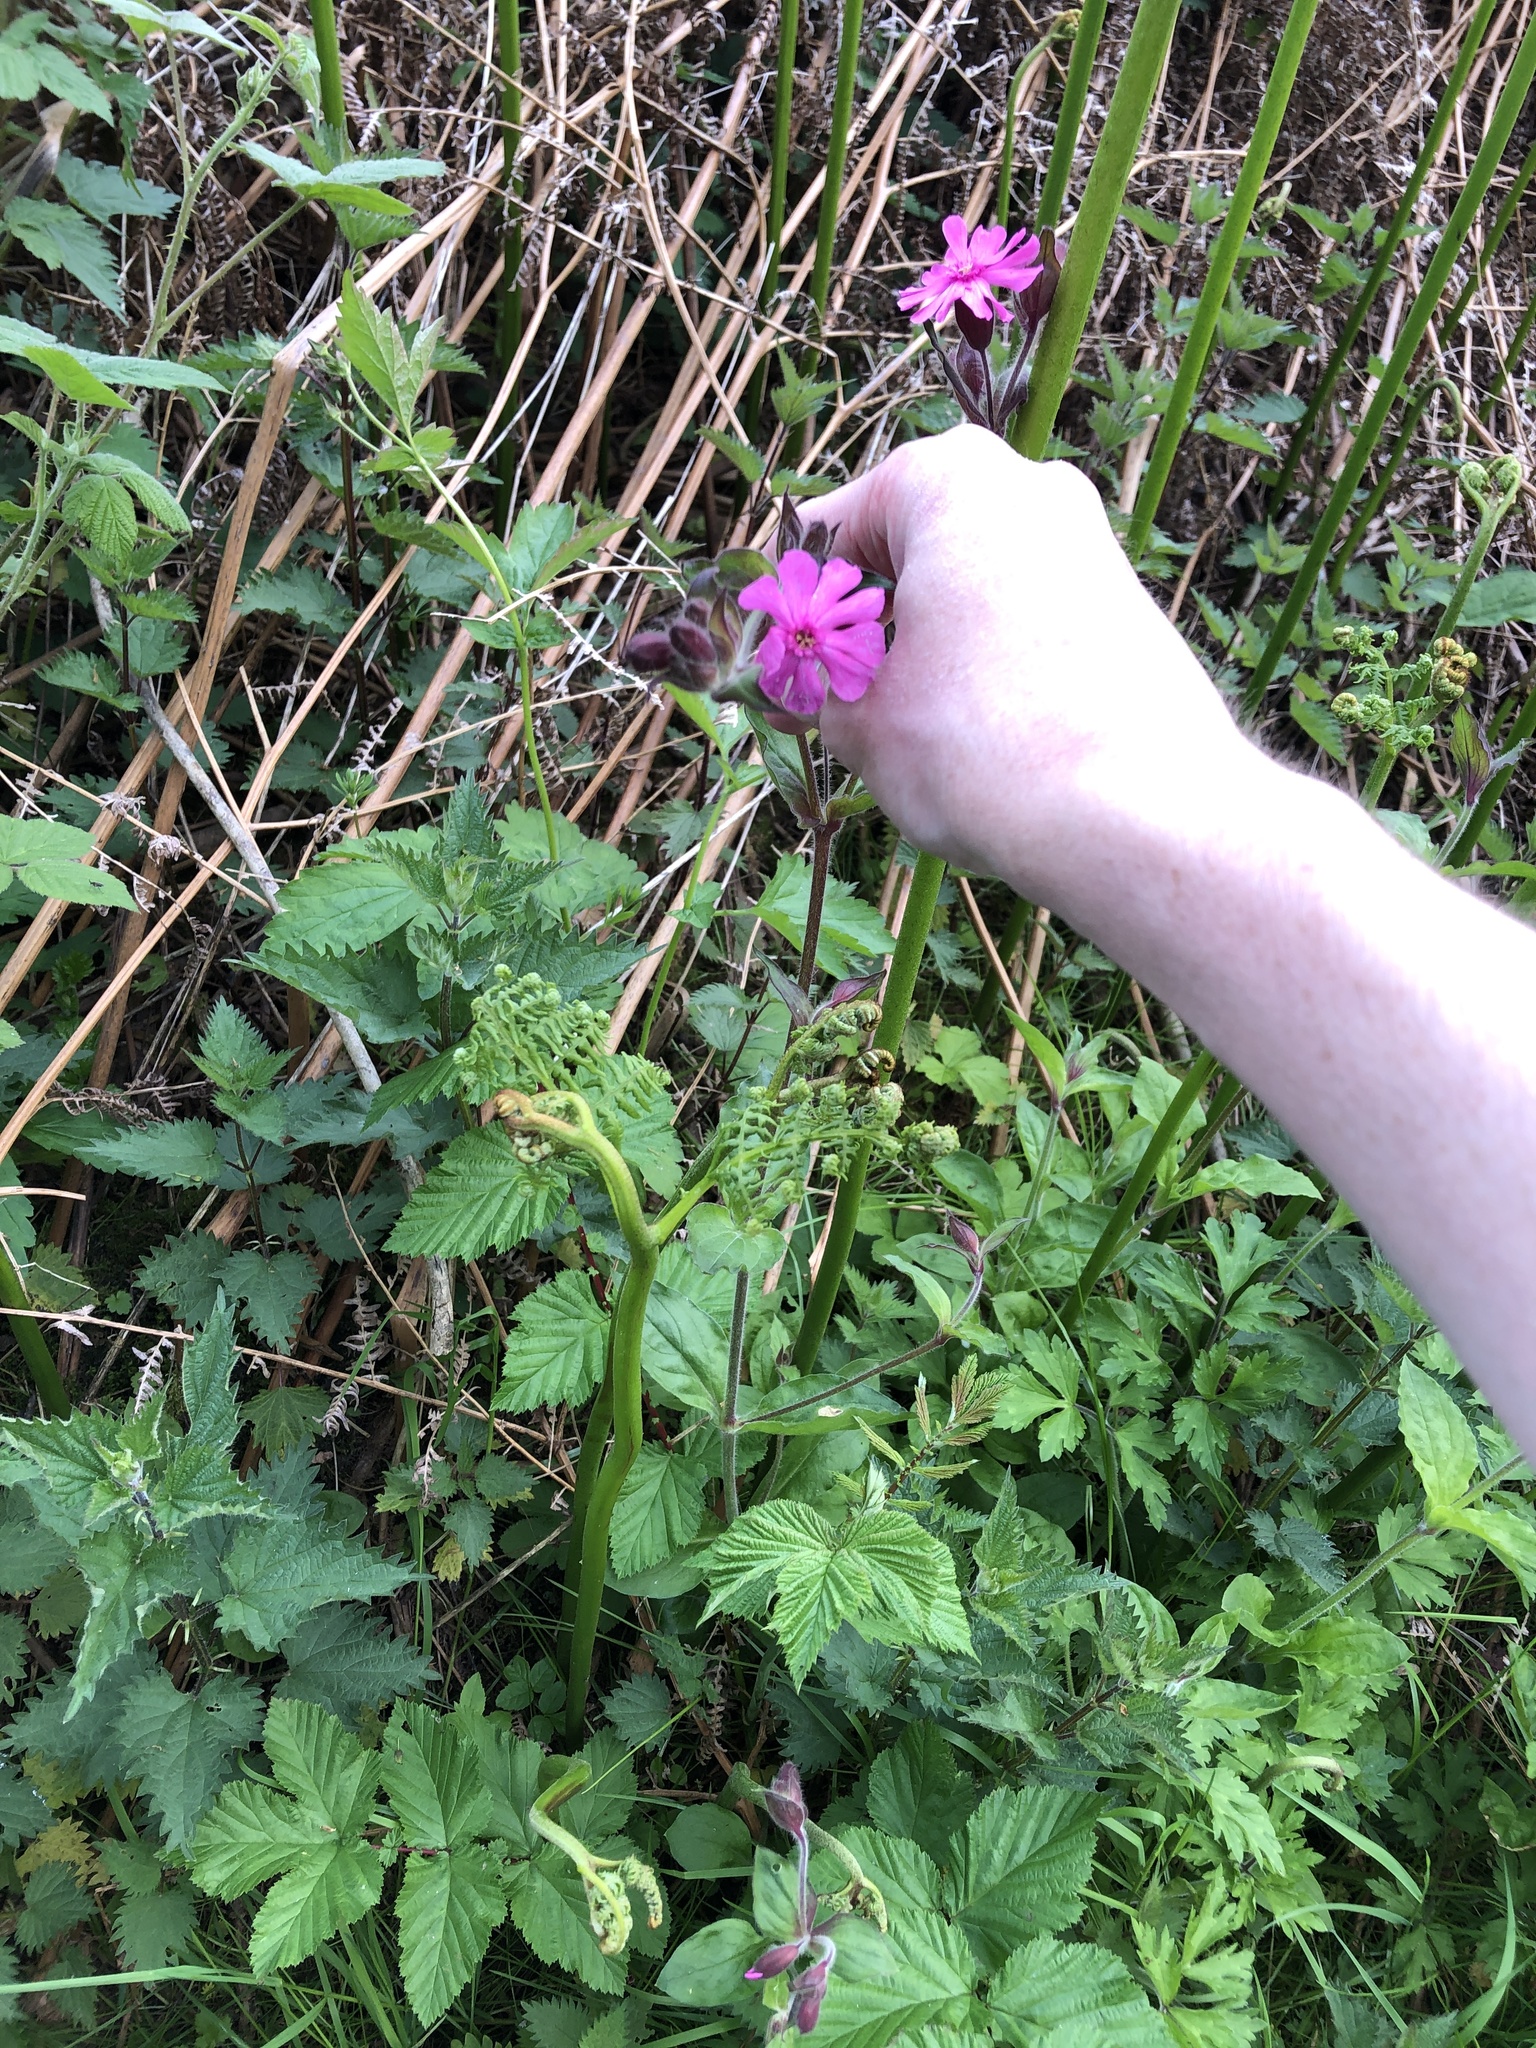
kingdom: Plantae
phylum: Tracheophyta
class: Magnoliopsida
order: Caryophyllales
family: Caryophyllaceae
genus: Silene
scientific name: Silene dioica
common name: Red campion
